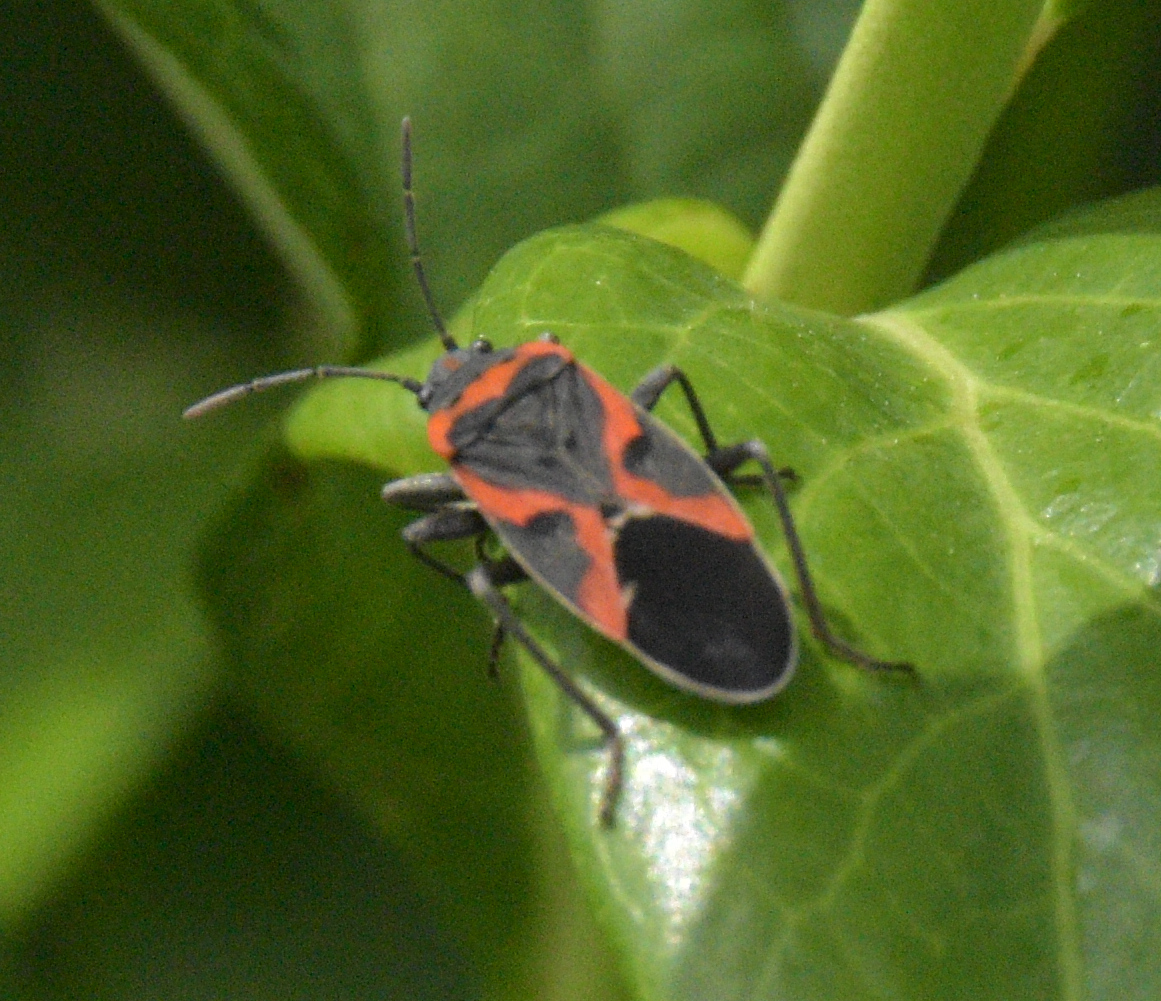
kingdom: Animalia
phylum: Arthropoda
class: Insecta
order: Hemiptera
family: Lygaeidae
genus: Lygaeus
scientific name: Lygaeus kalmii
